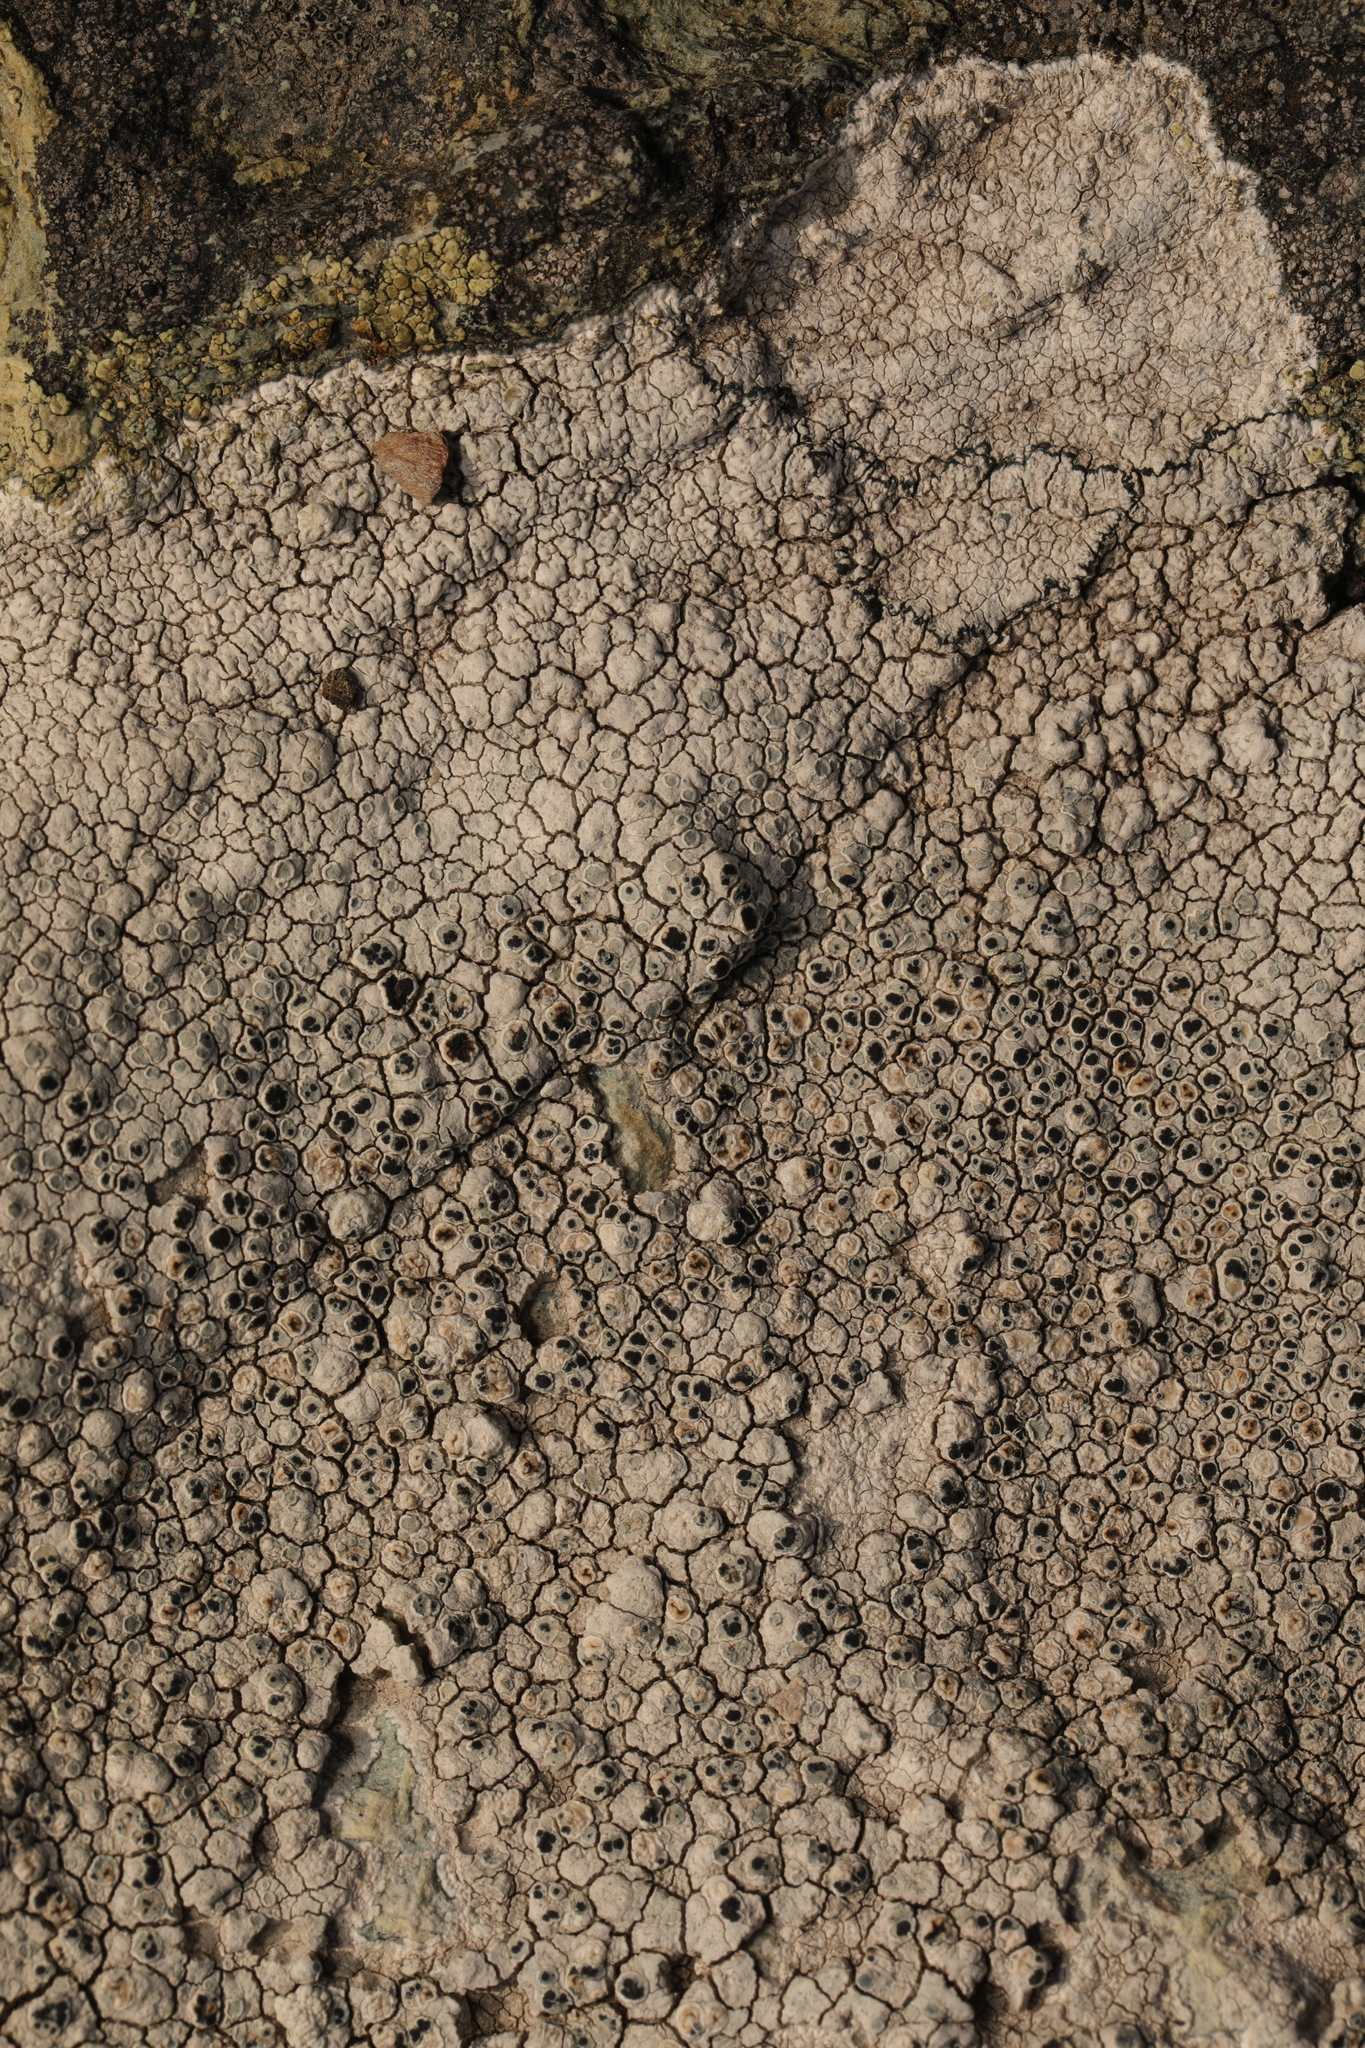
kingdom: Fungi
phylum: Ascomycota
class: Lecanoromycetes
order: Lecanorales
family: Lecanoraceae
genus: Glaucomaria
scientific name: Glaucomaria rupicola
